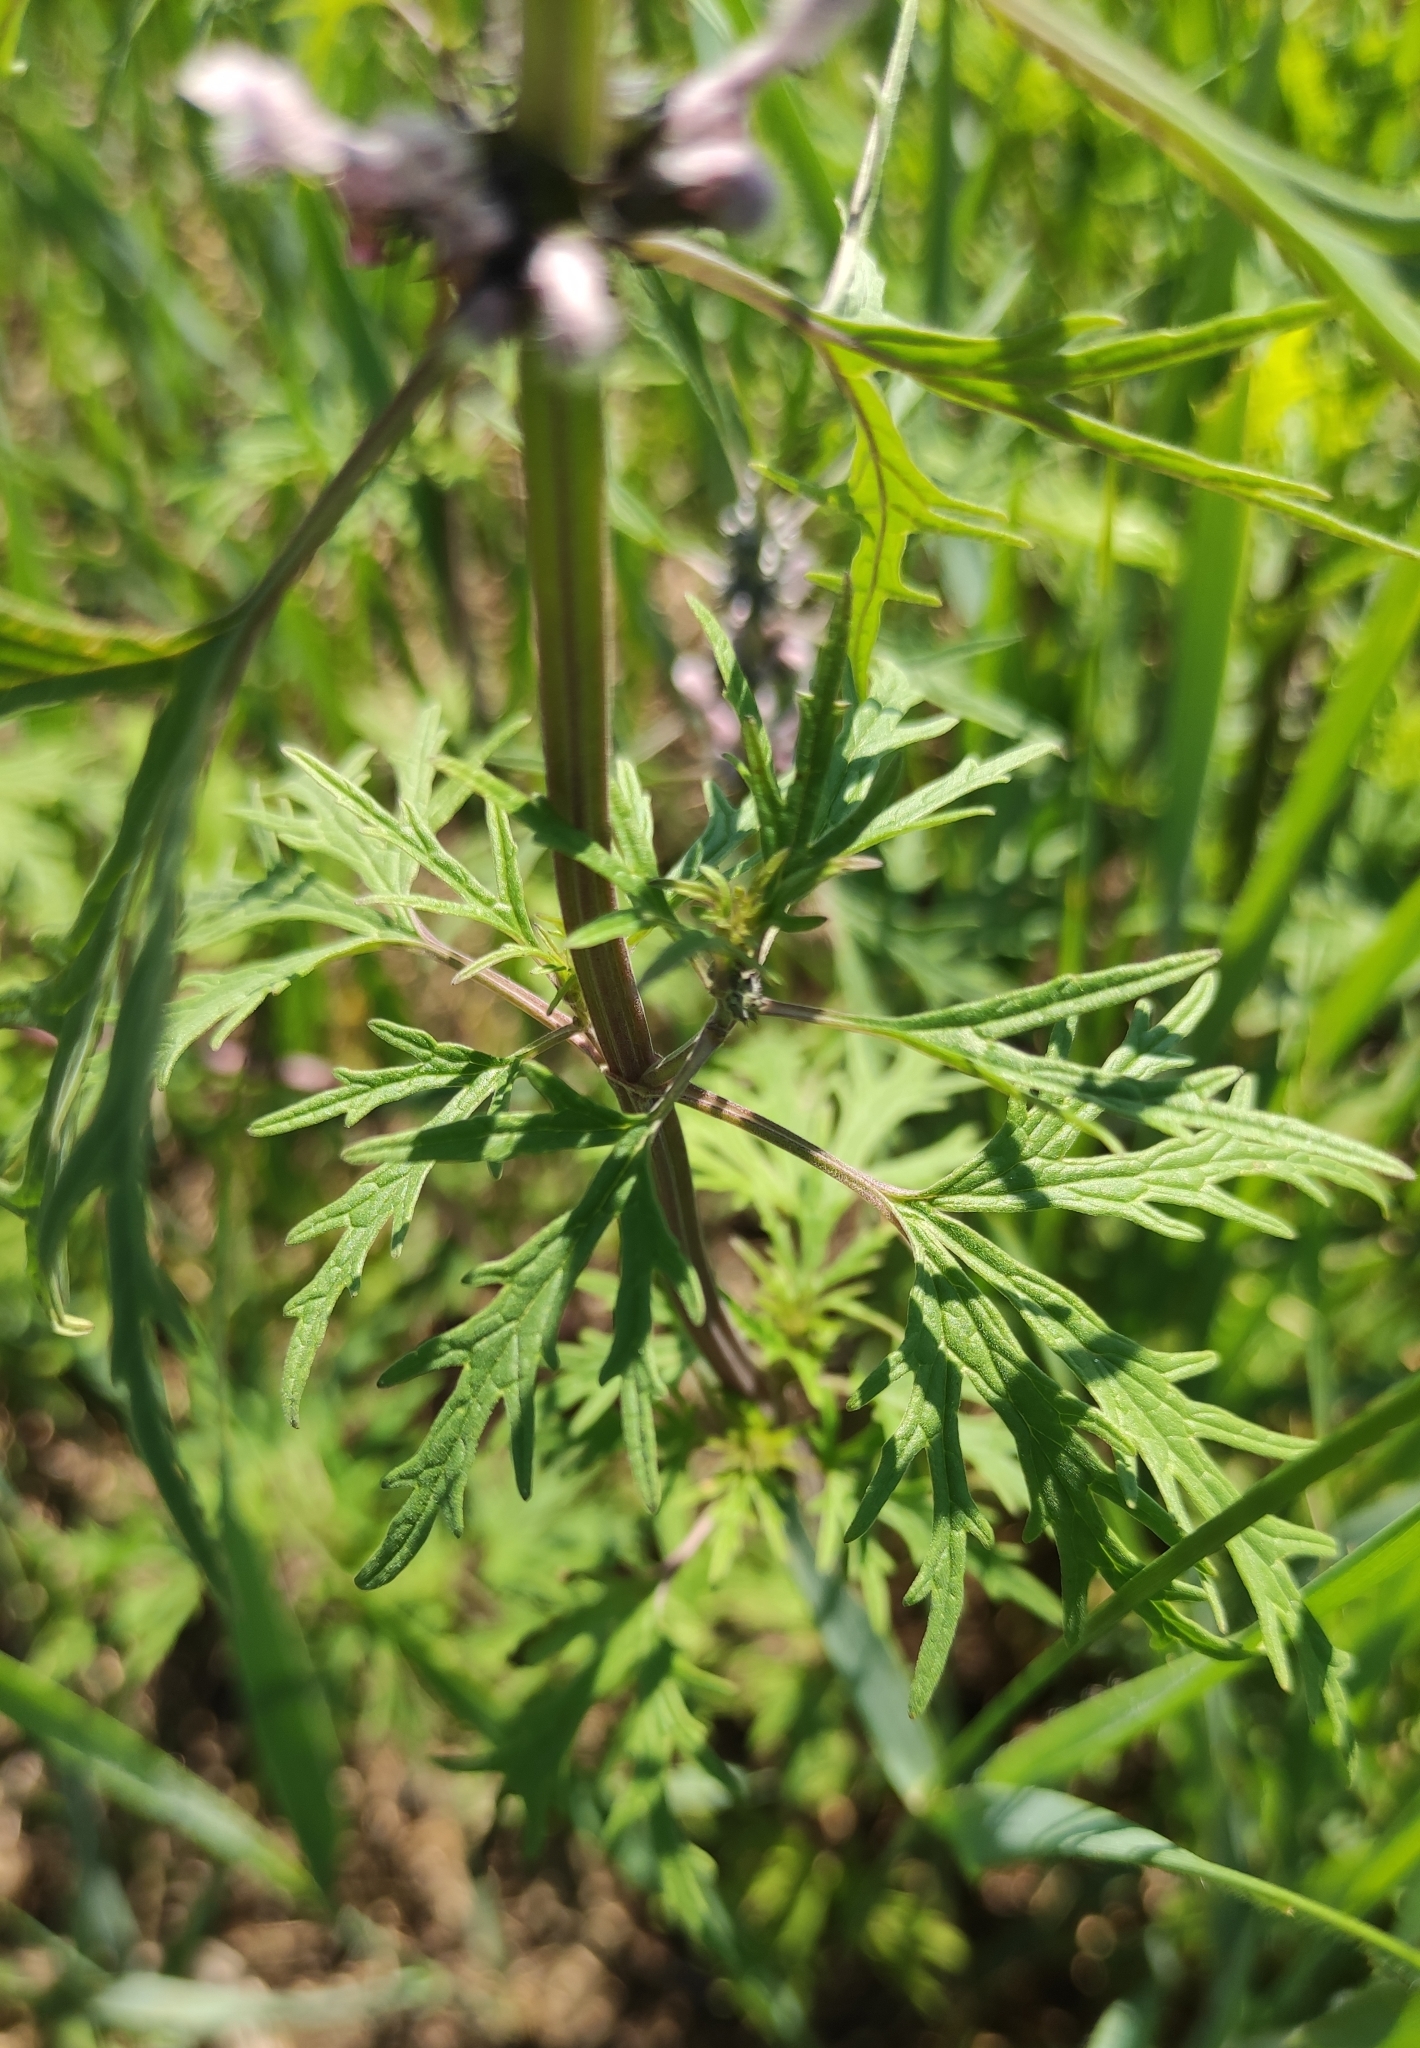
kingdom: Plantae
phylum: Tracheophyta
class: Magnoliopsida
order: Lamiales
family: Lamiaceae
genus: Leonurus
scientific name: Leonurus deminutus
